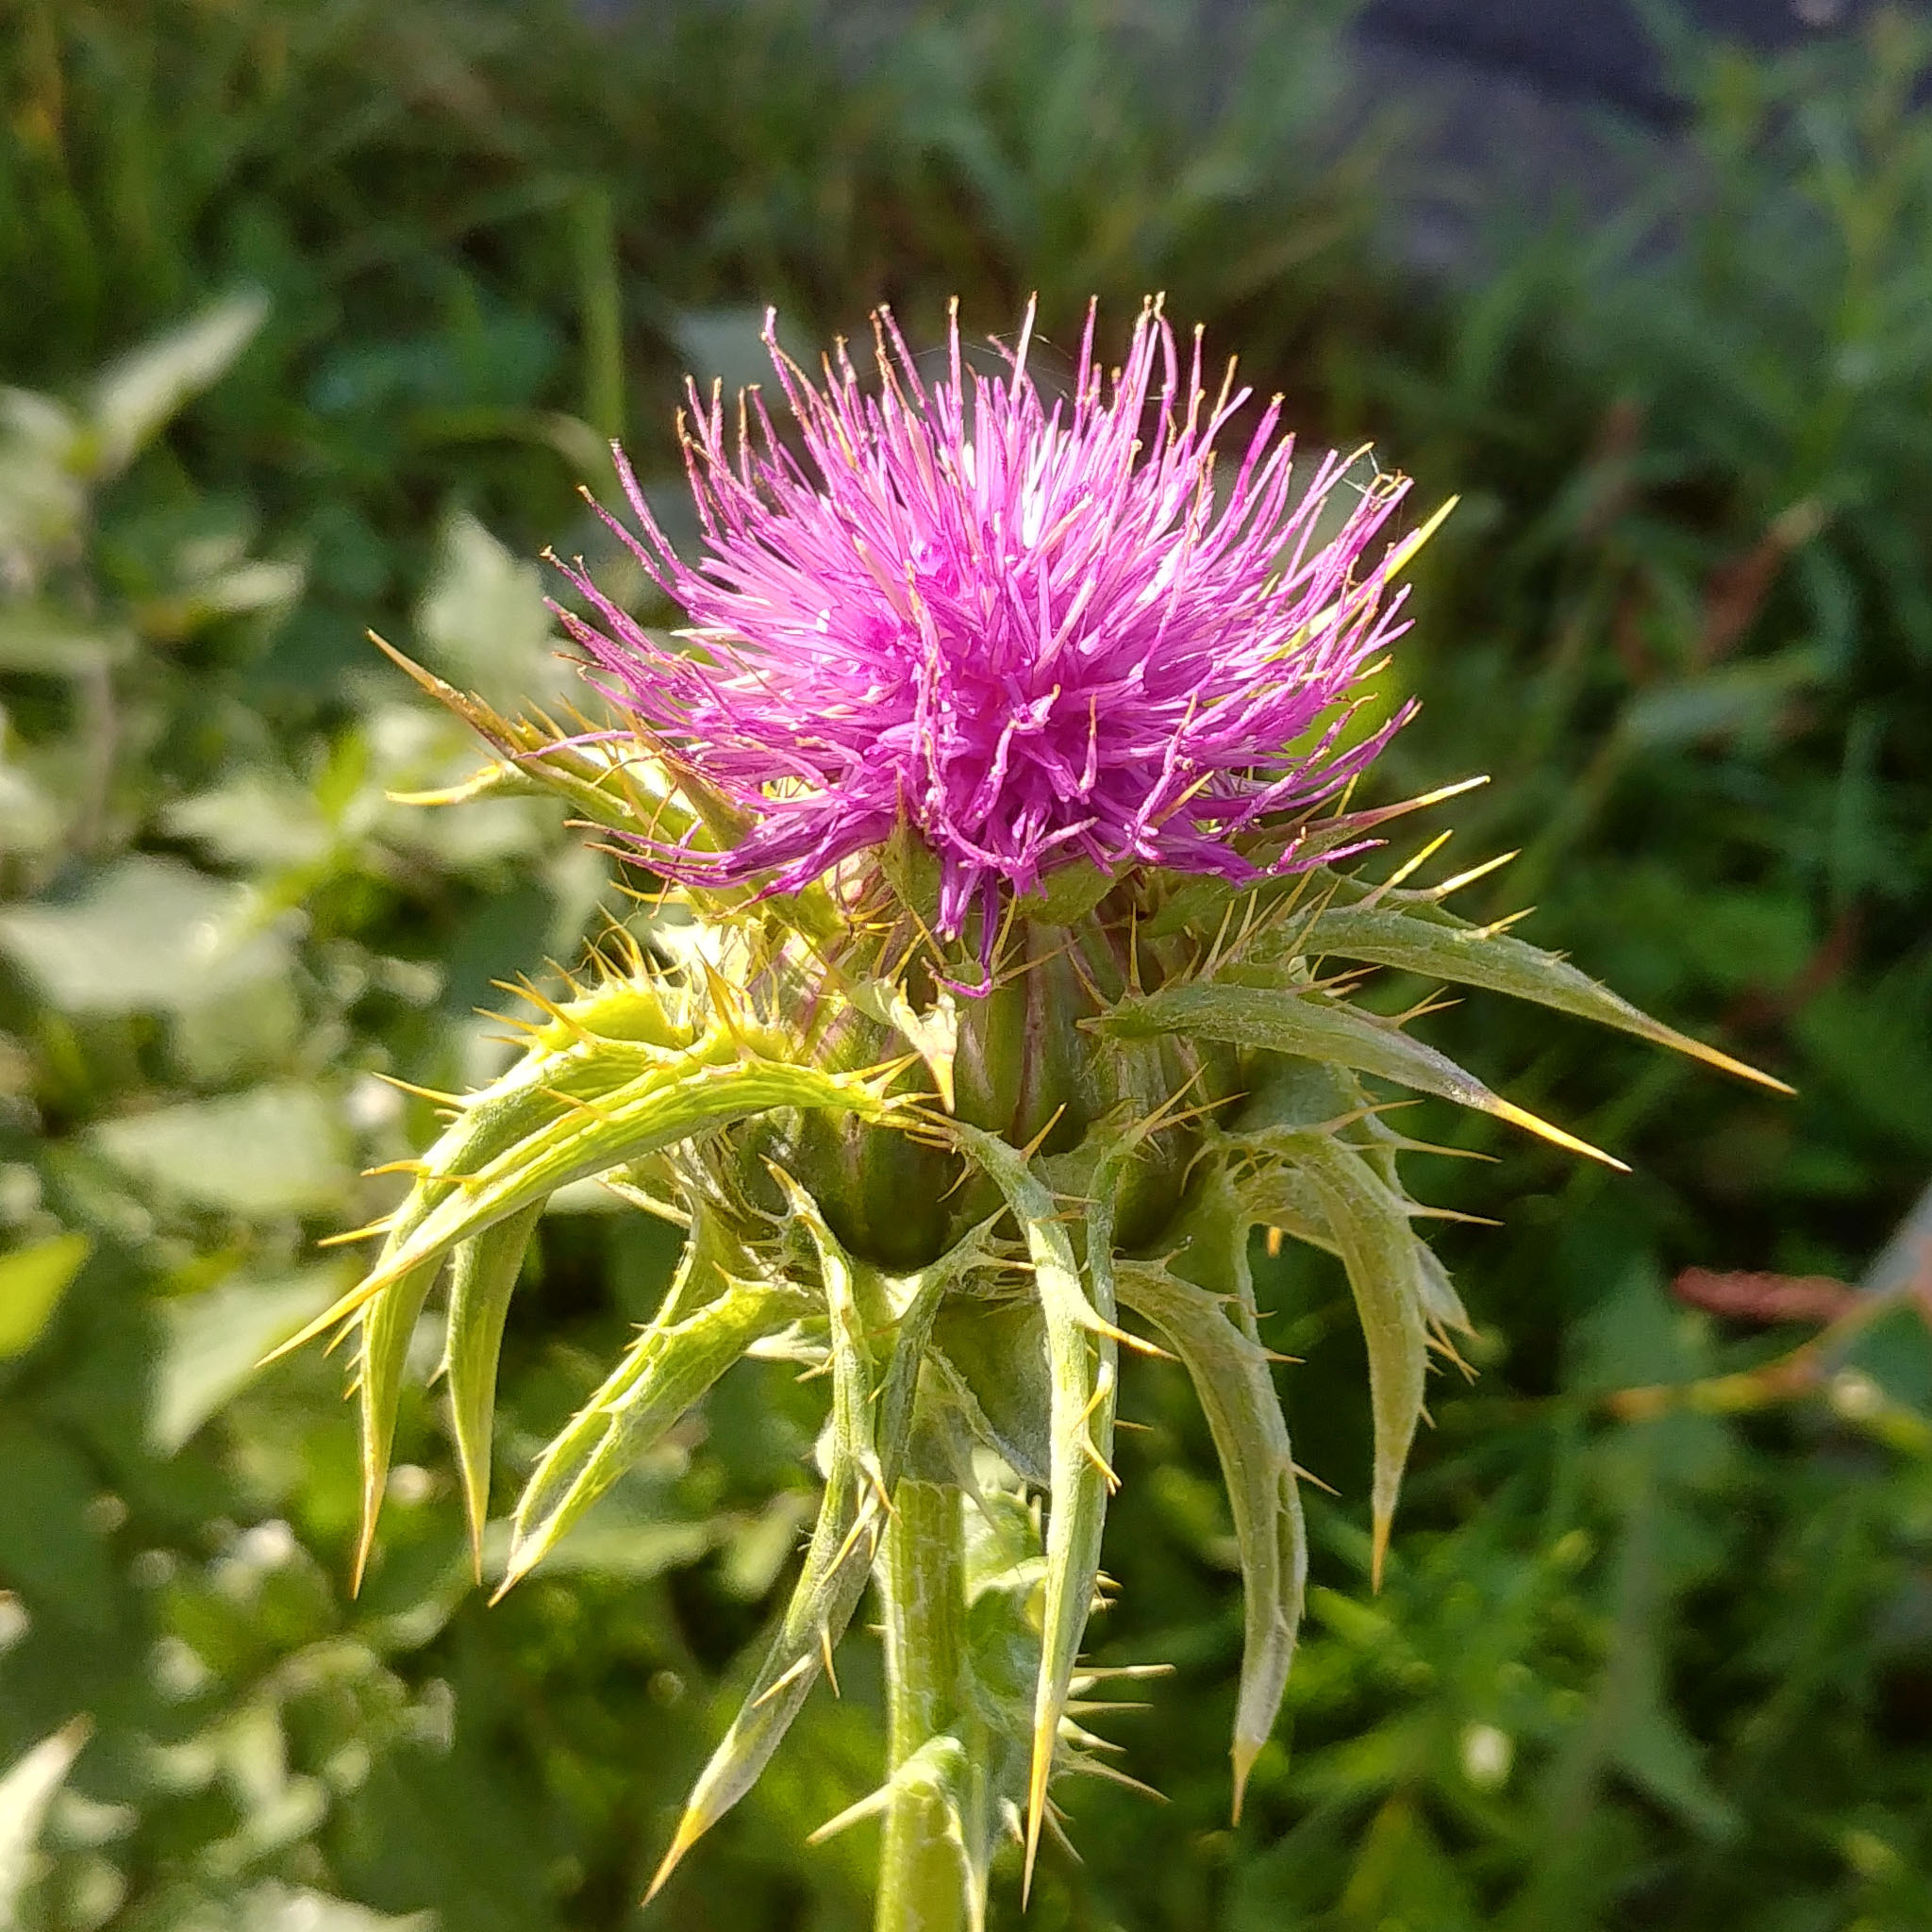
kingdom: Plantae
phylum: Tracheophyta
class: Magnoliopsida
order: Asterales
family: Asteraceae
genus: Silybum
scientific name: Silybum marianum
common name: Milk thistle
